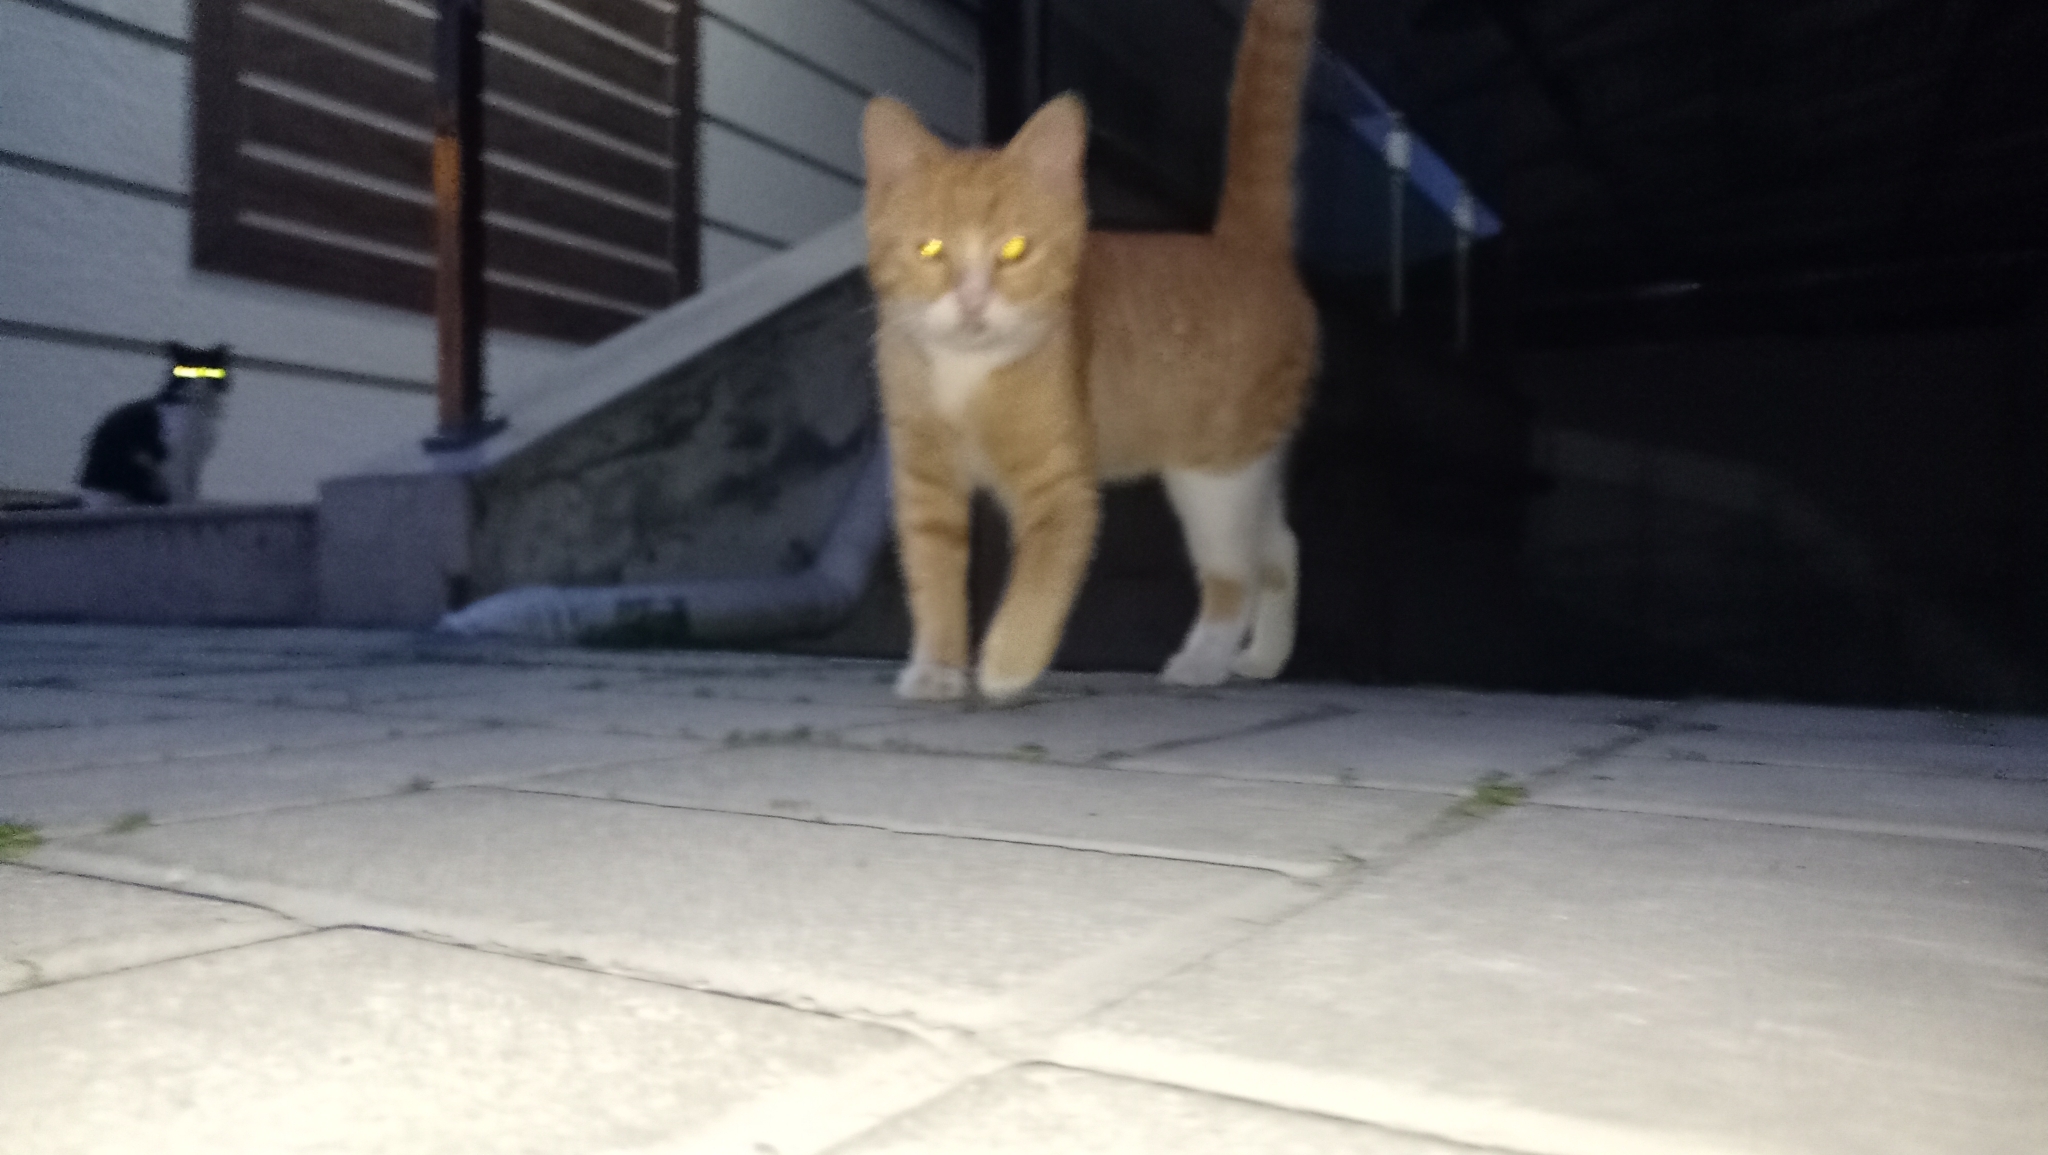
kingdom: Animalia
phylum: Chordata
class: Mammalia
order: Carnivora
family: Felidae
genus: Felis
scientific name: Felis catus
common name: Domestic cat
